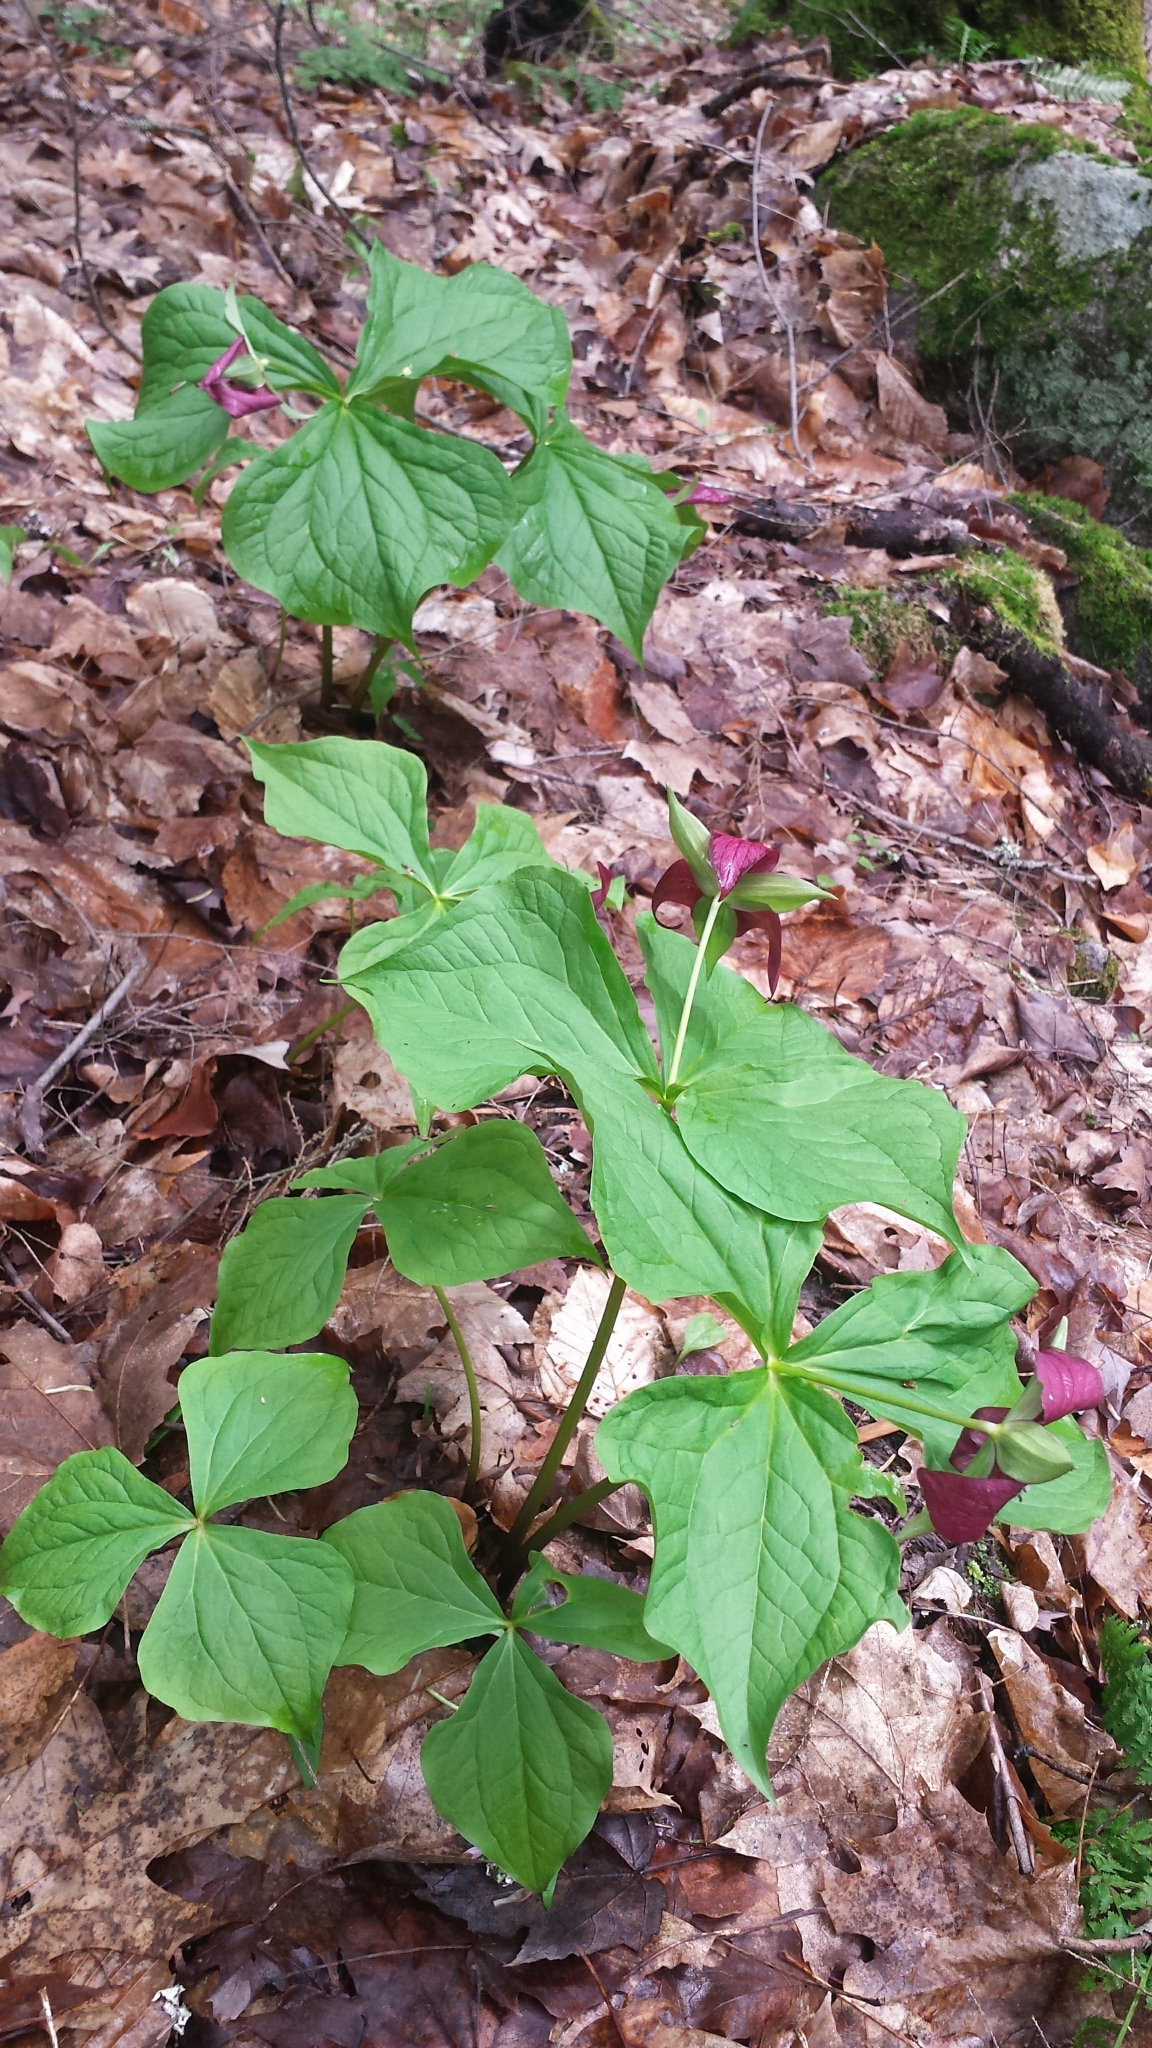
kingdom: Plantae
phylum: Tracheophyta
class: Liliopsida
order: Liliales
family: Melanthiaceae
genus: Trillium
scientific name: Trillium erectum
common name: Purple trillium
